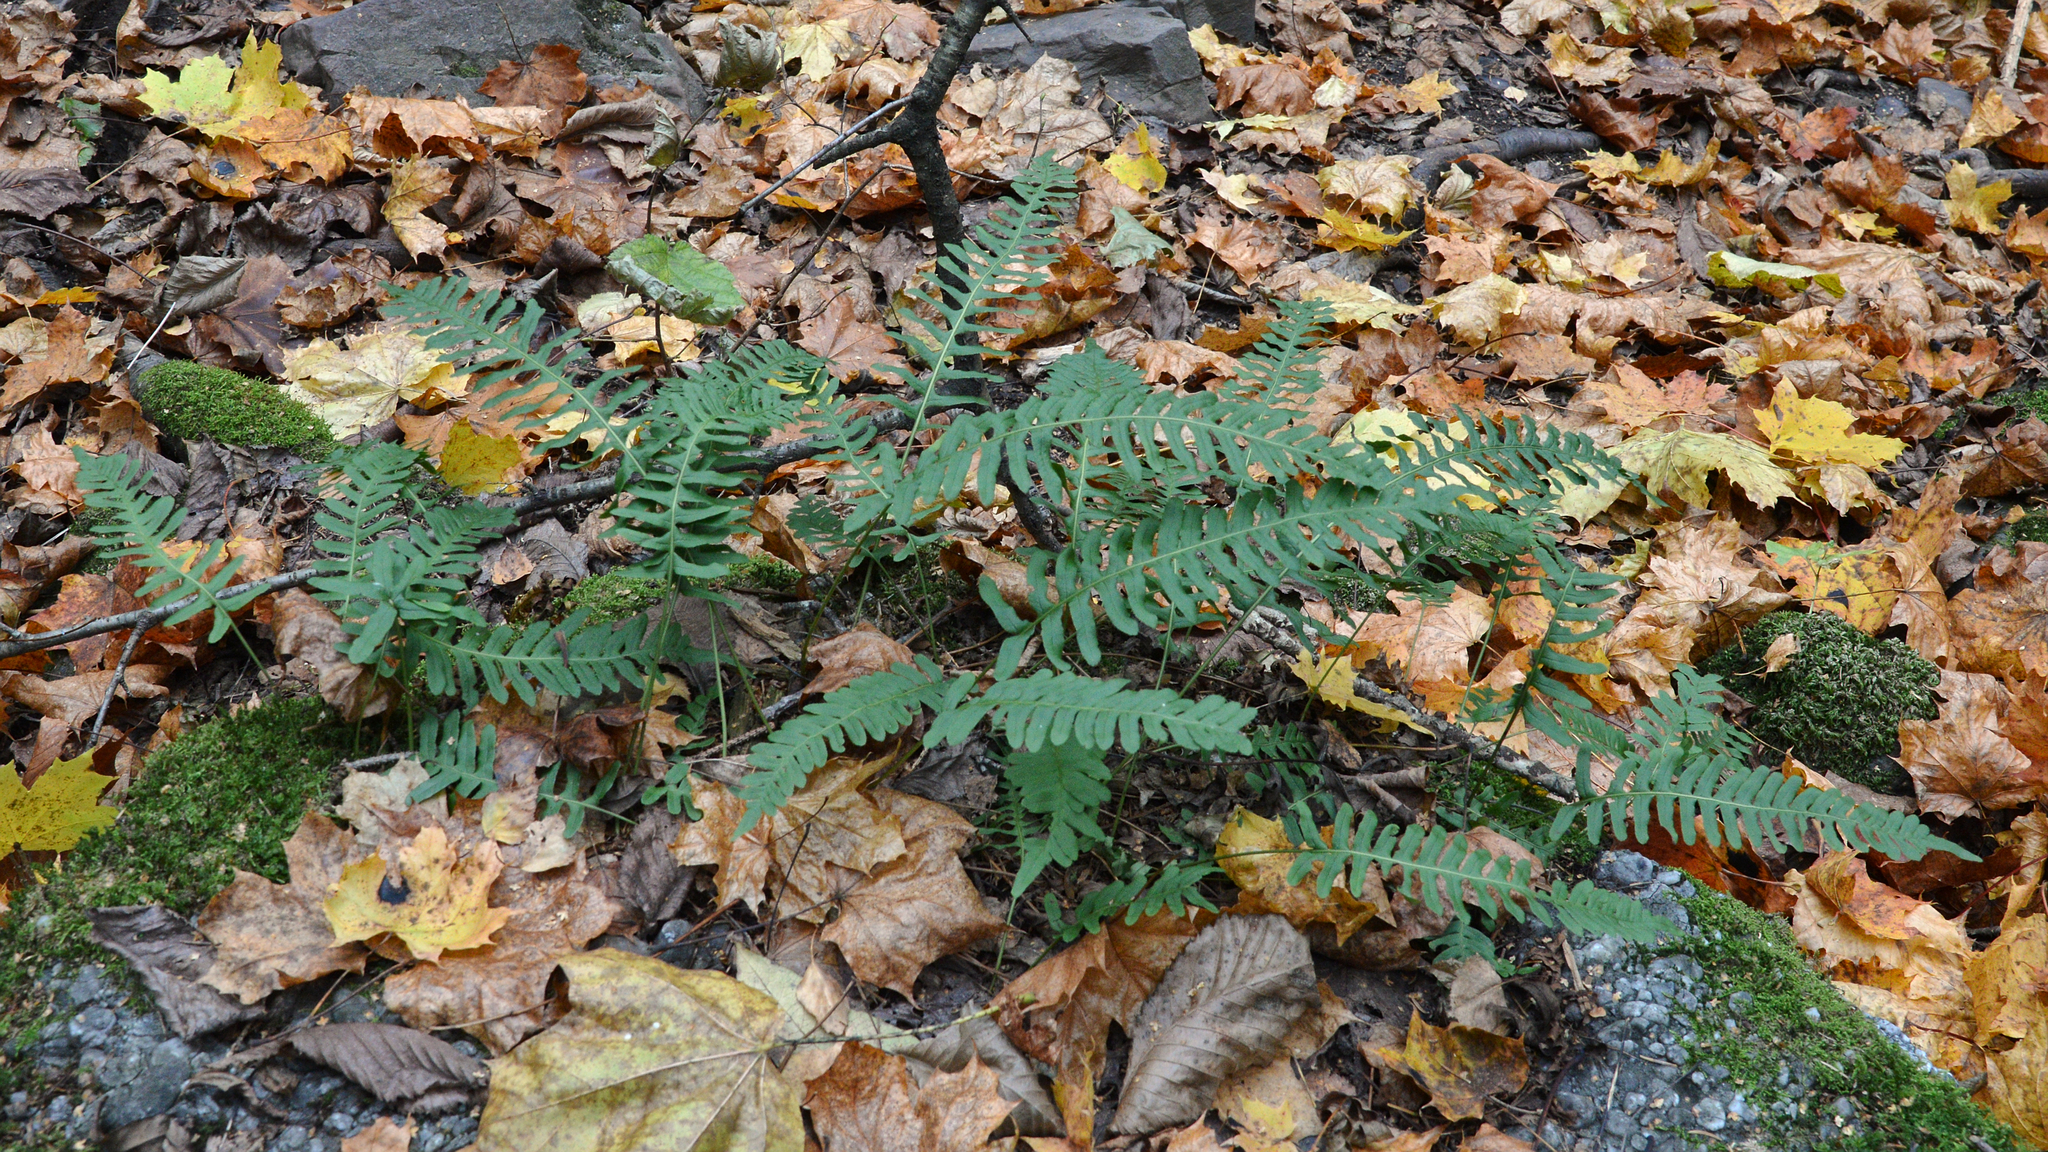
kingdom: Plantae
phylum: Tracheophyta
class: Polypodiopsida
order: Polypodiales
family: Polypodiaceae
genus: Polypodium
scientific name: Polypodium vulgare
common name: Common polypody
